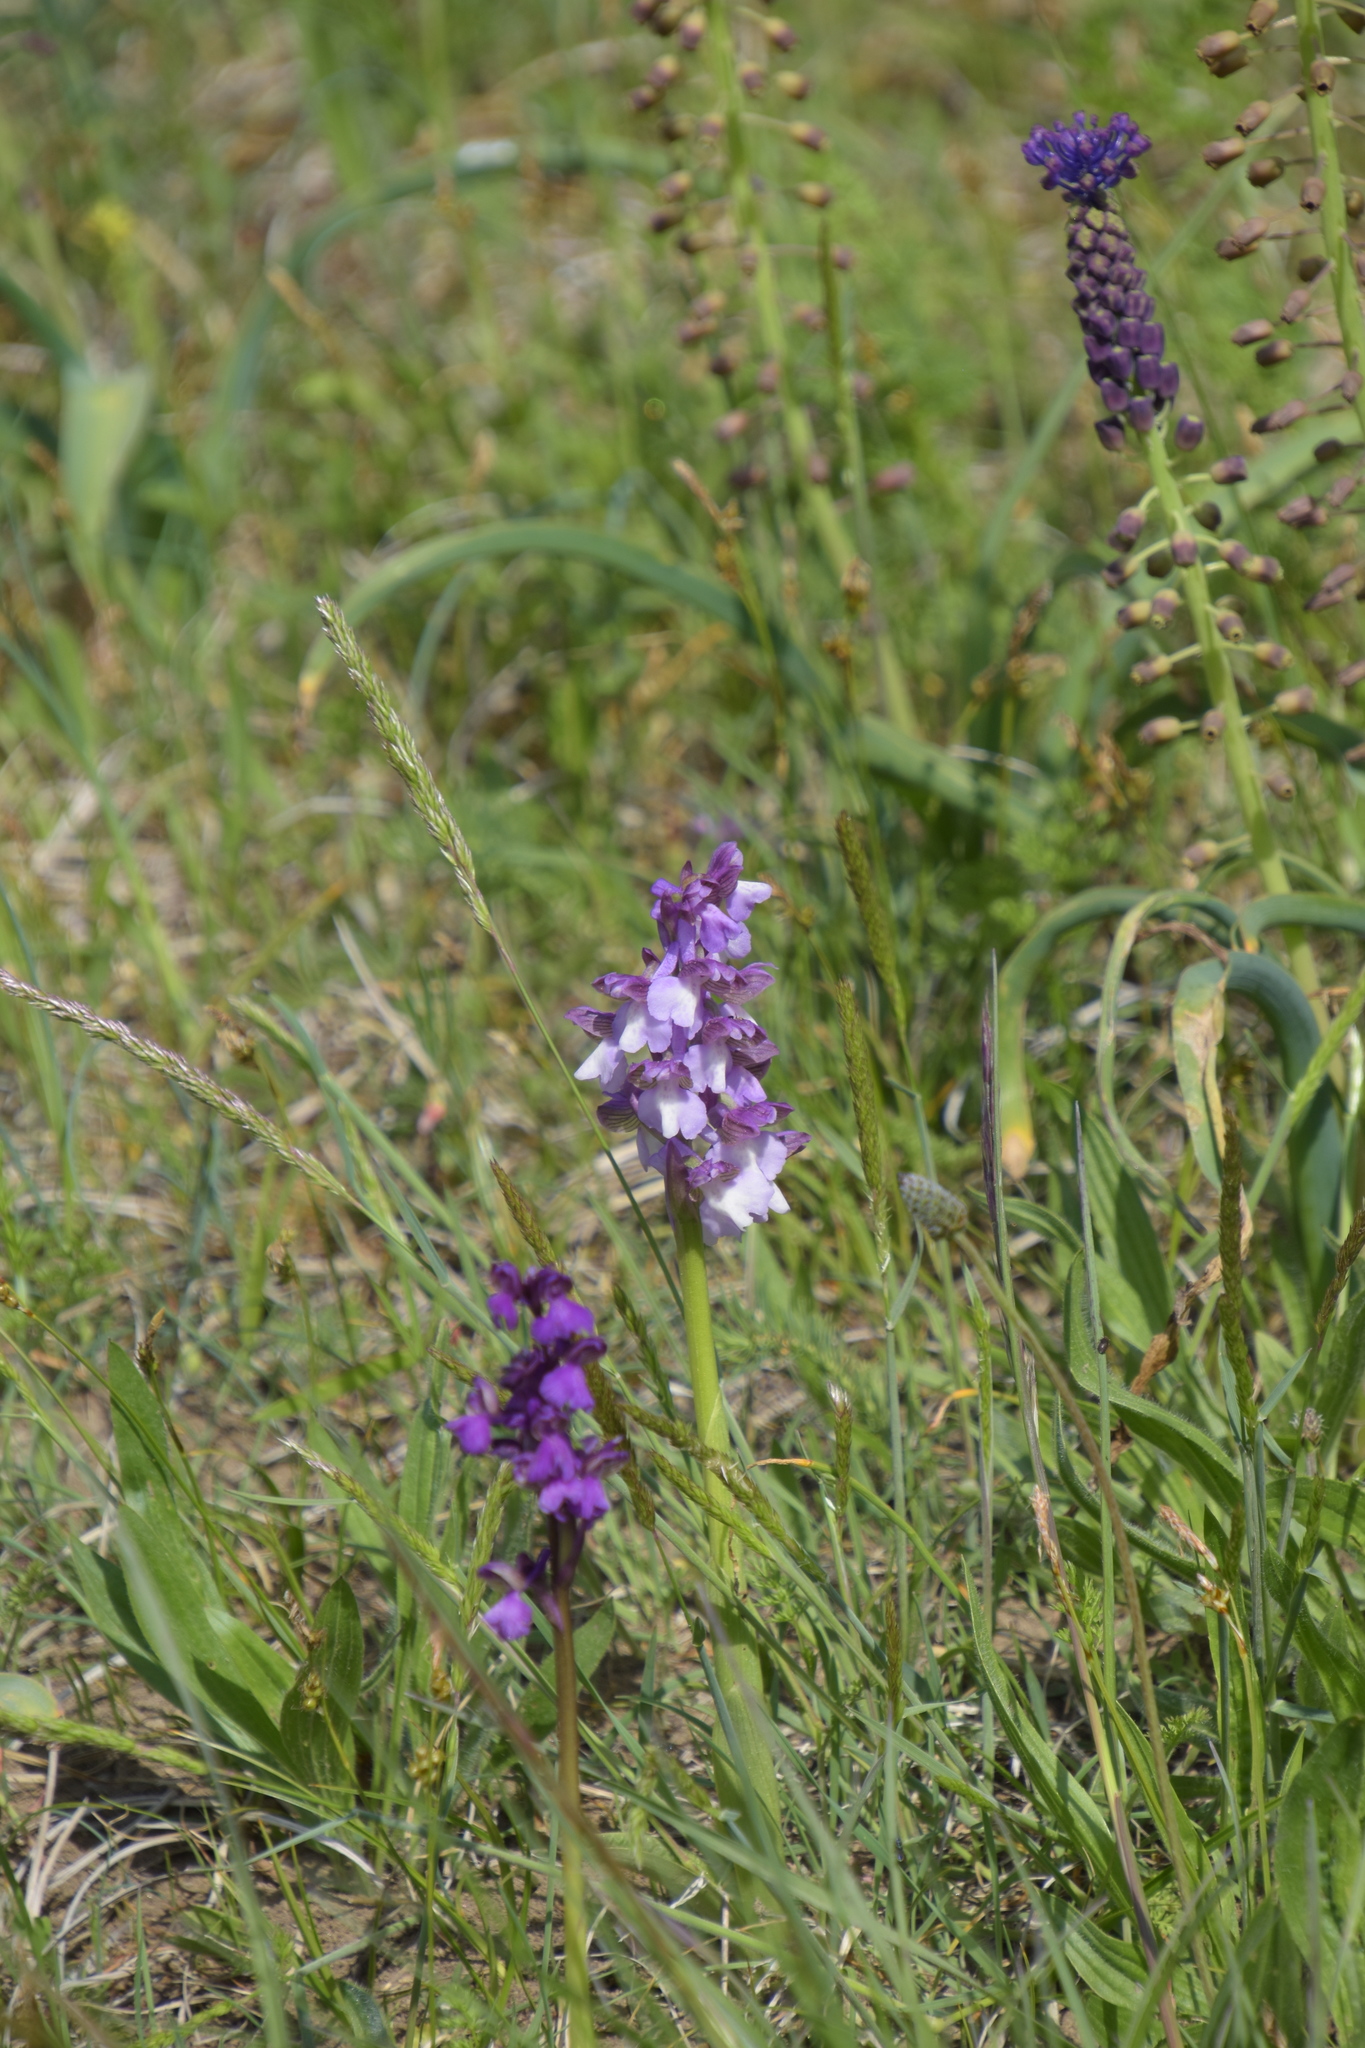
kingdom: Plantae
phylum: Tracheophyta
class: Liliopsida
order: Asparagales
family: Orchidaceae
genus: Anacamptis
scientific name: Anacamptis morio
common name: Green-winged orchid
